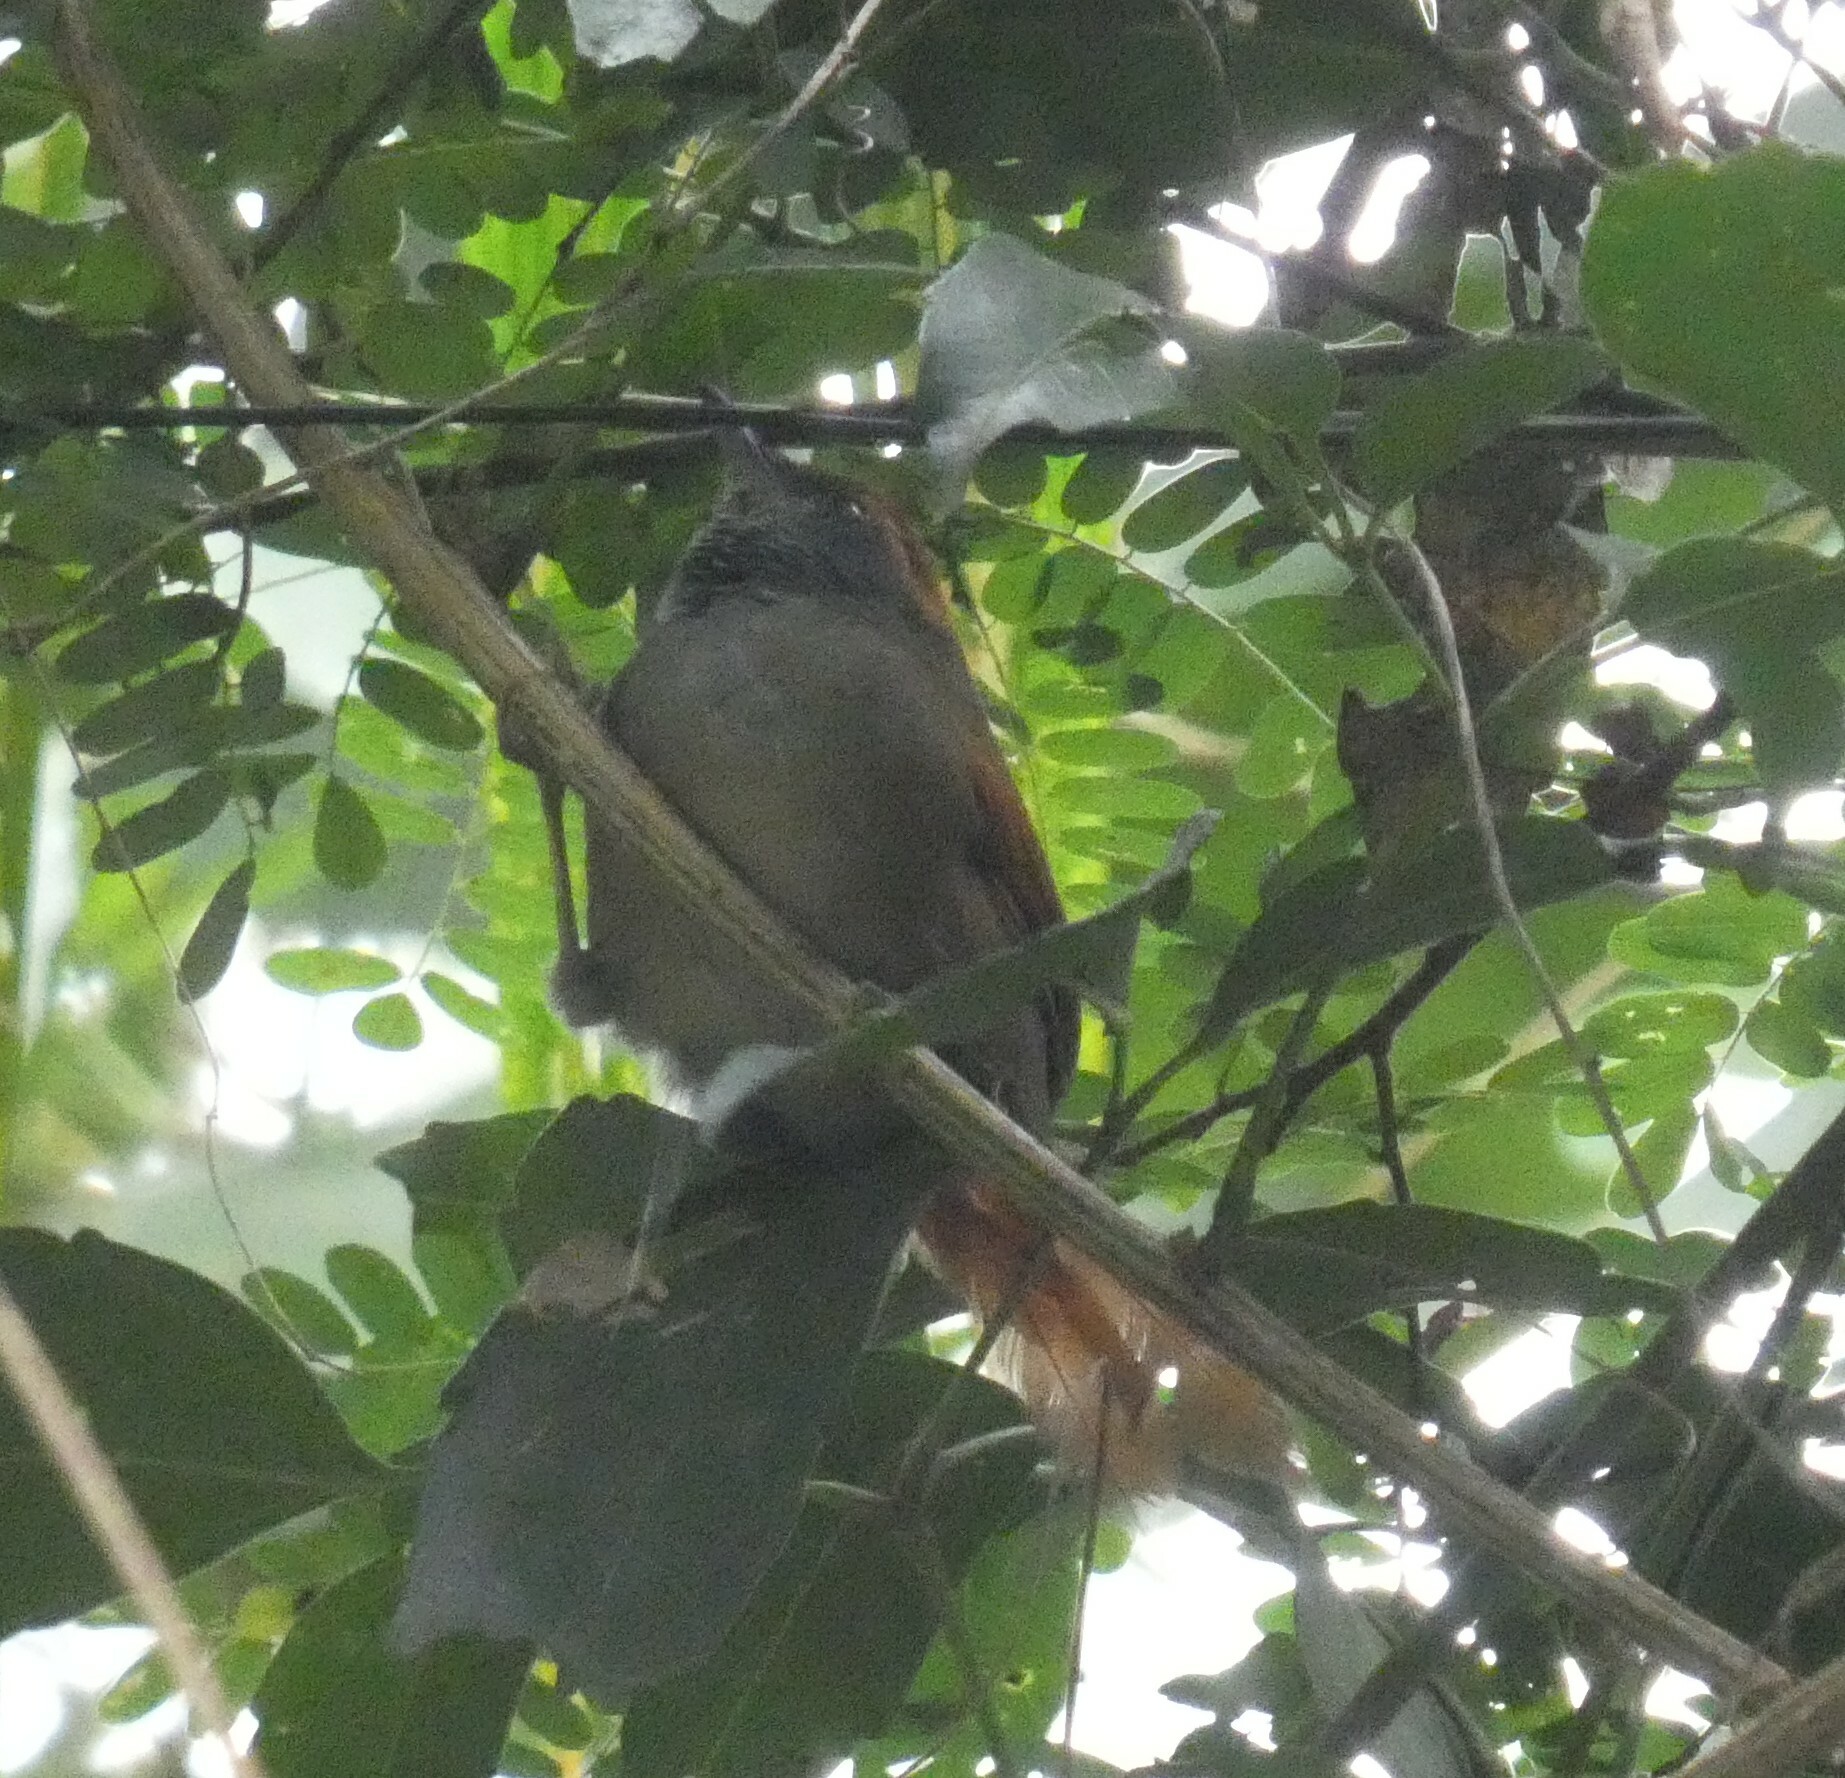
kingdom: Animalia
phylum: Chordata
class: Aves
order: Passeriformes
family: Furnariidae
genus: Synallaxis
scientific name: Synallaxis ruficapilla
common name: Rufous-capped spinetail
